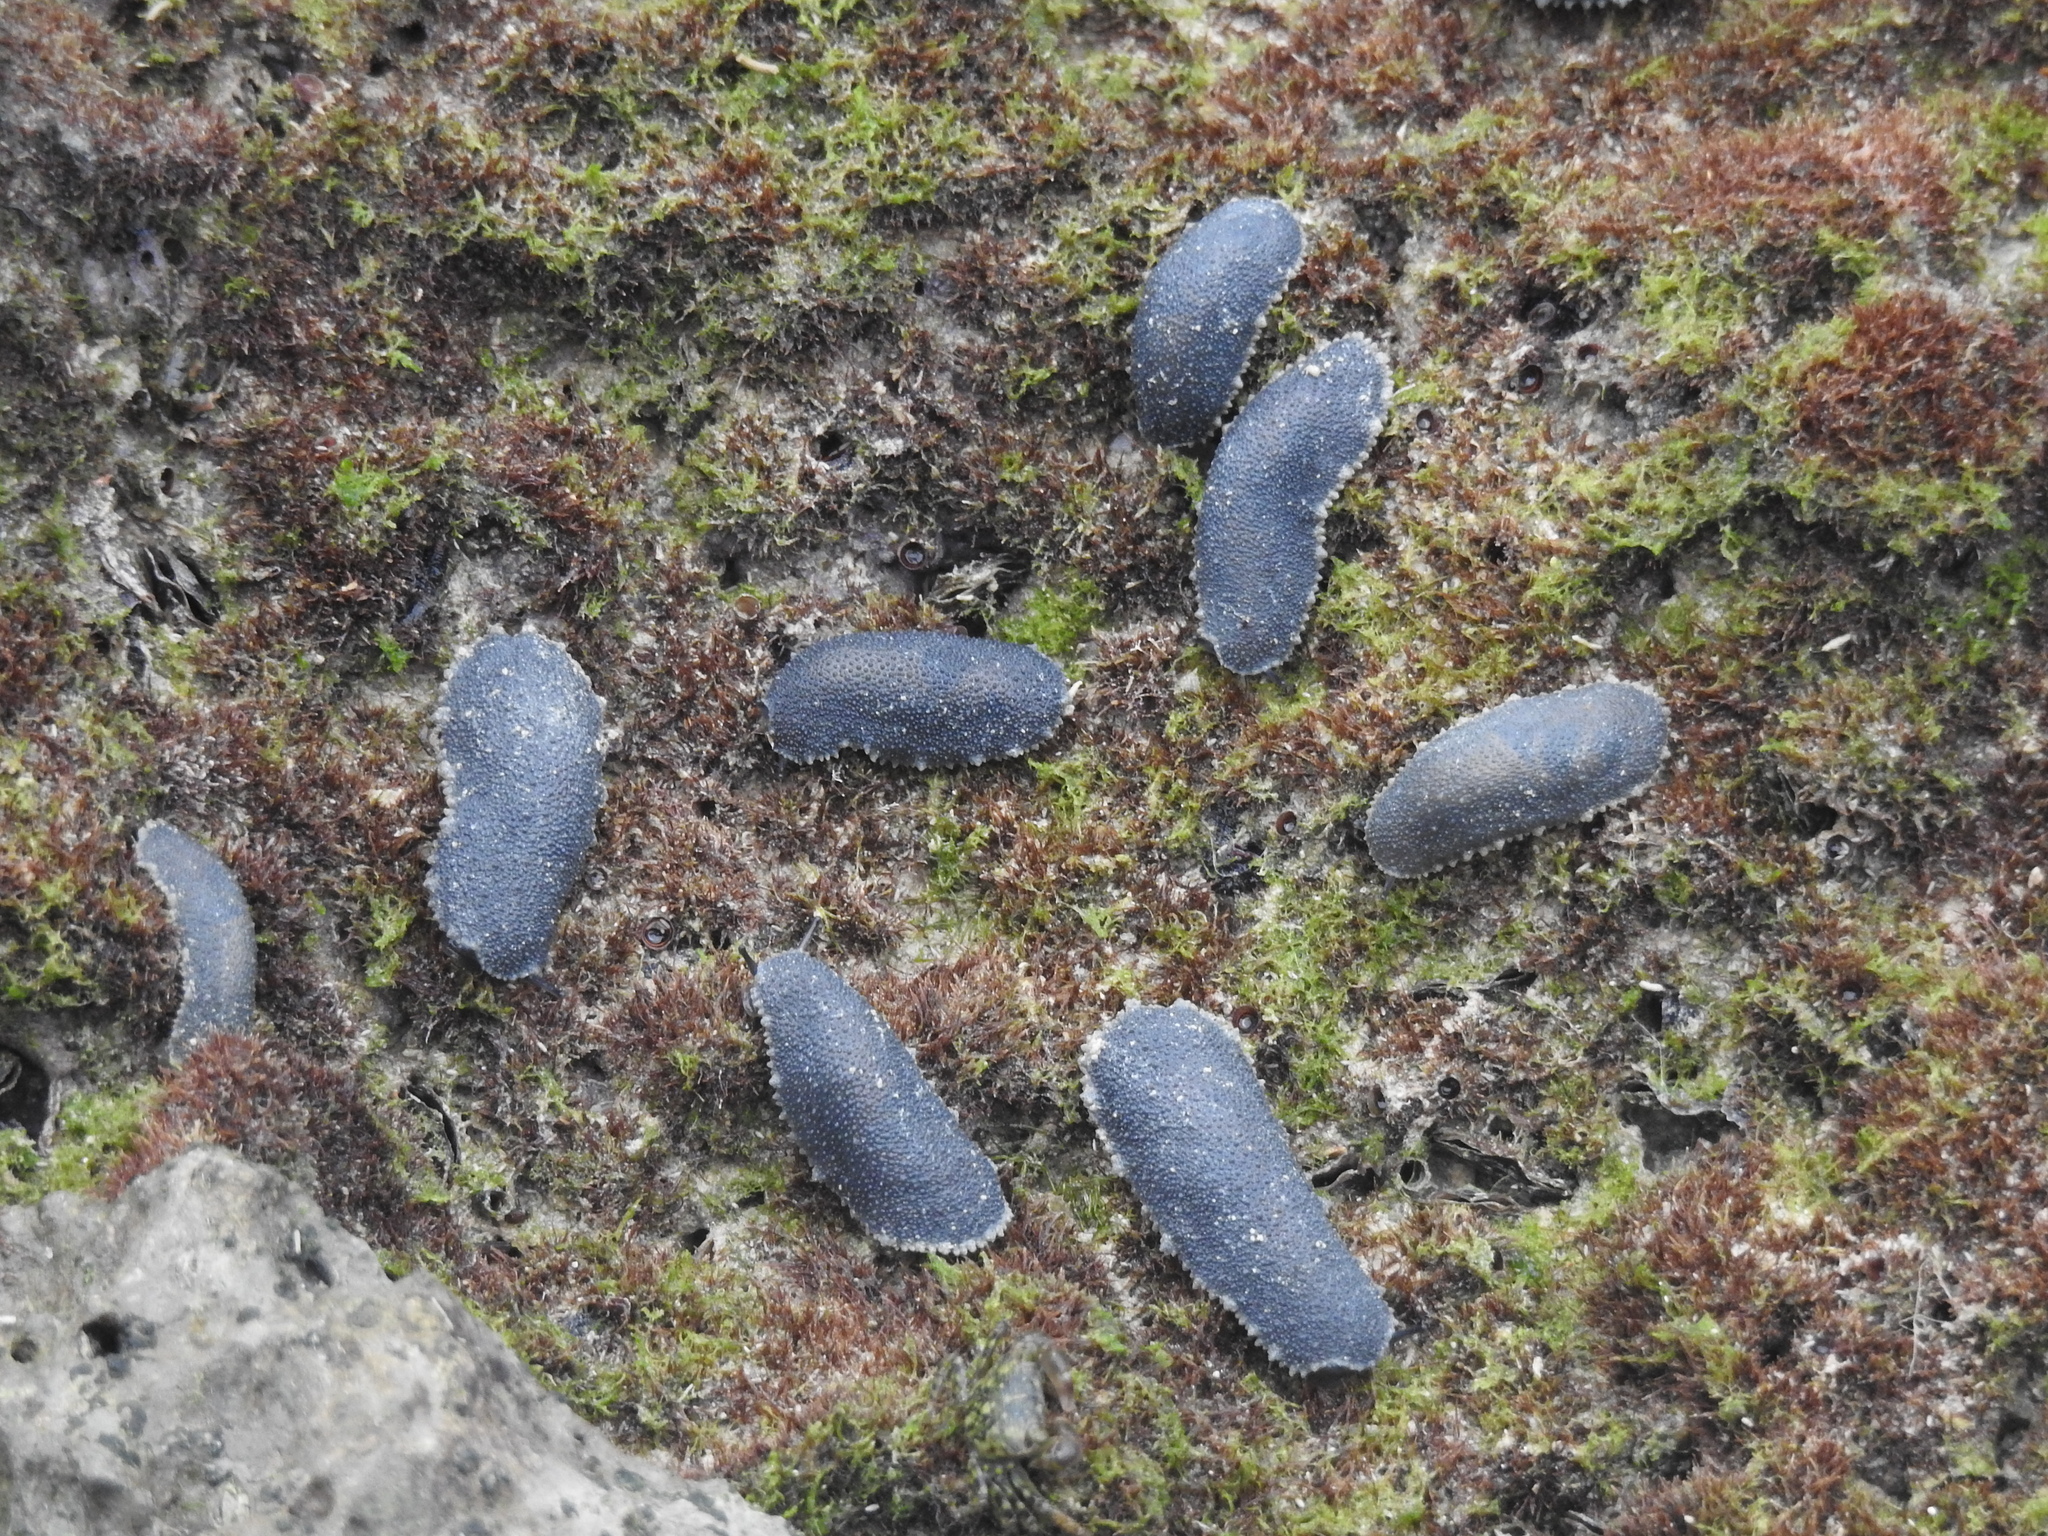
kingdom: Animalia
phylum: Mollusca
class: Gastropoda
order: Systellommatophora
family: Onchidiidae
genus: Onchidella
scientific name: Onchidella floridana
